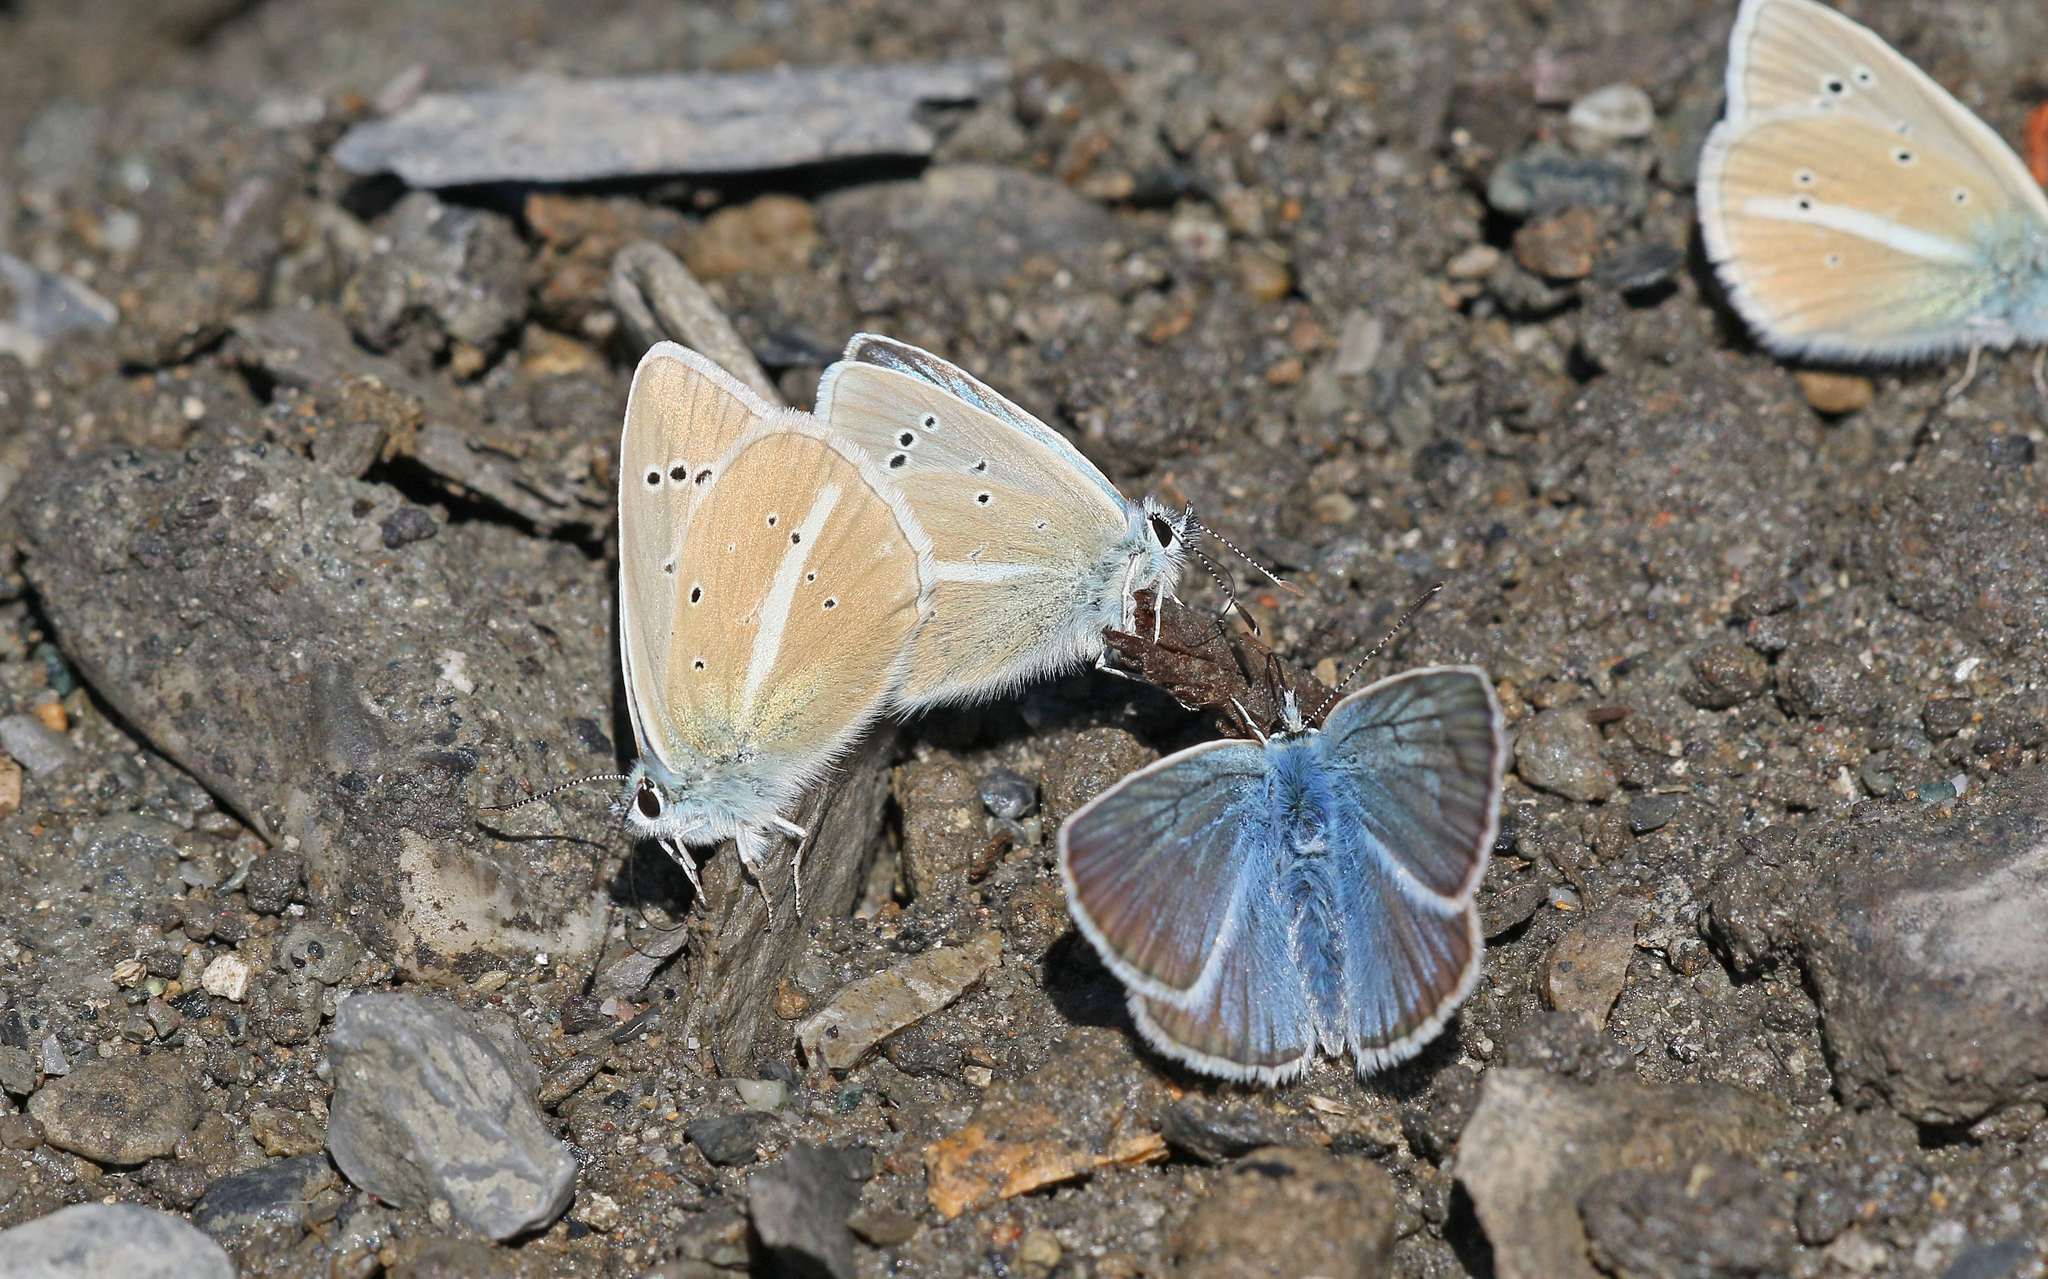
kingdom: Animalia
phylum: Arthropoda
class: Insecta
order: Lepidoptera
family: Lycaenidae
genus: Agrodiaetus
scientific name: Agrodiaetus damon
